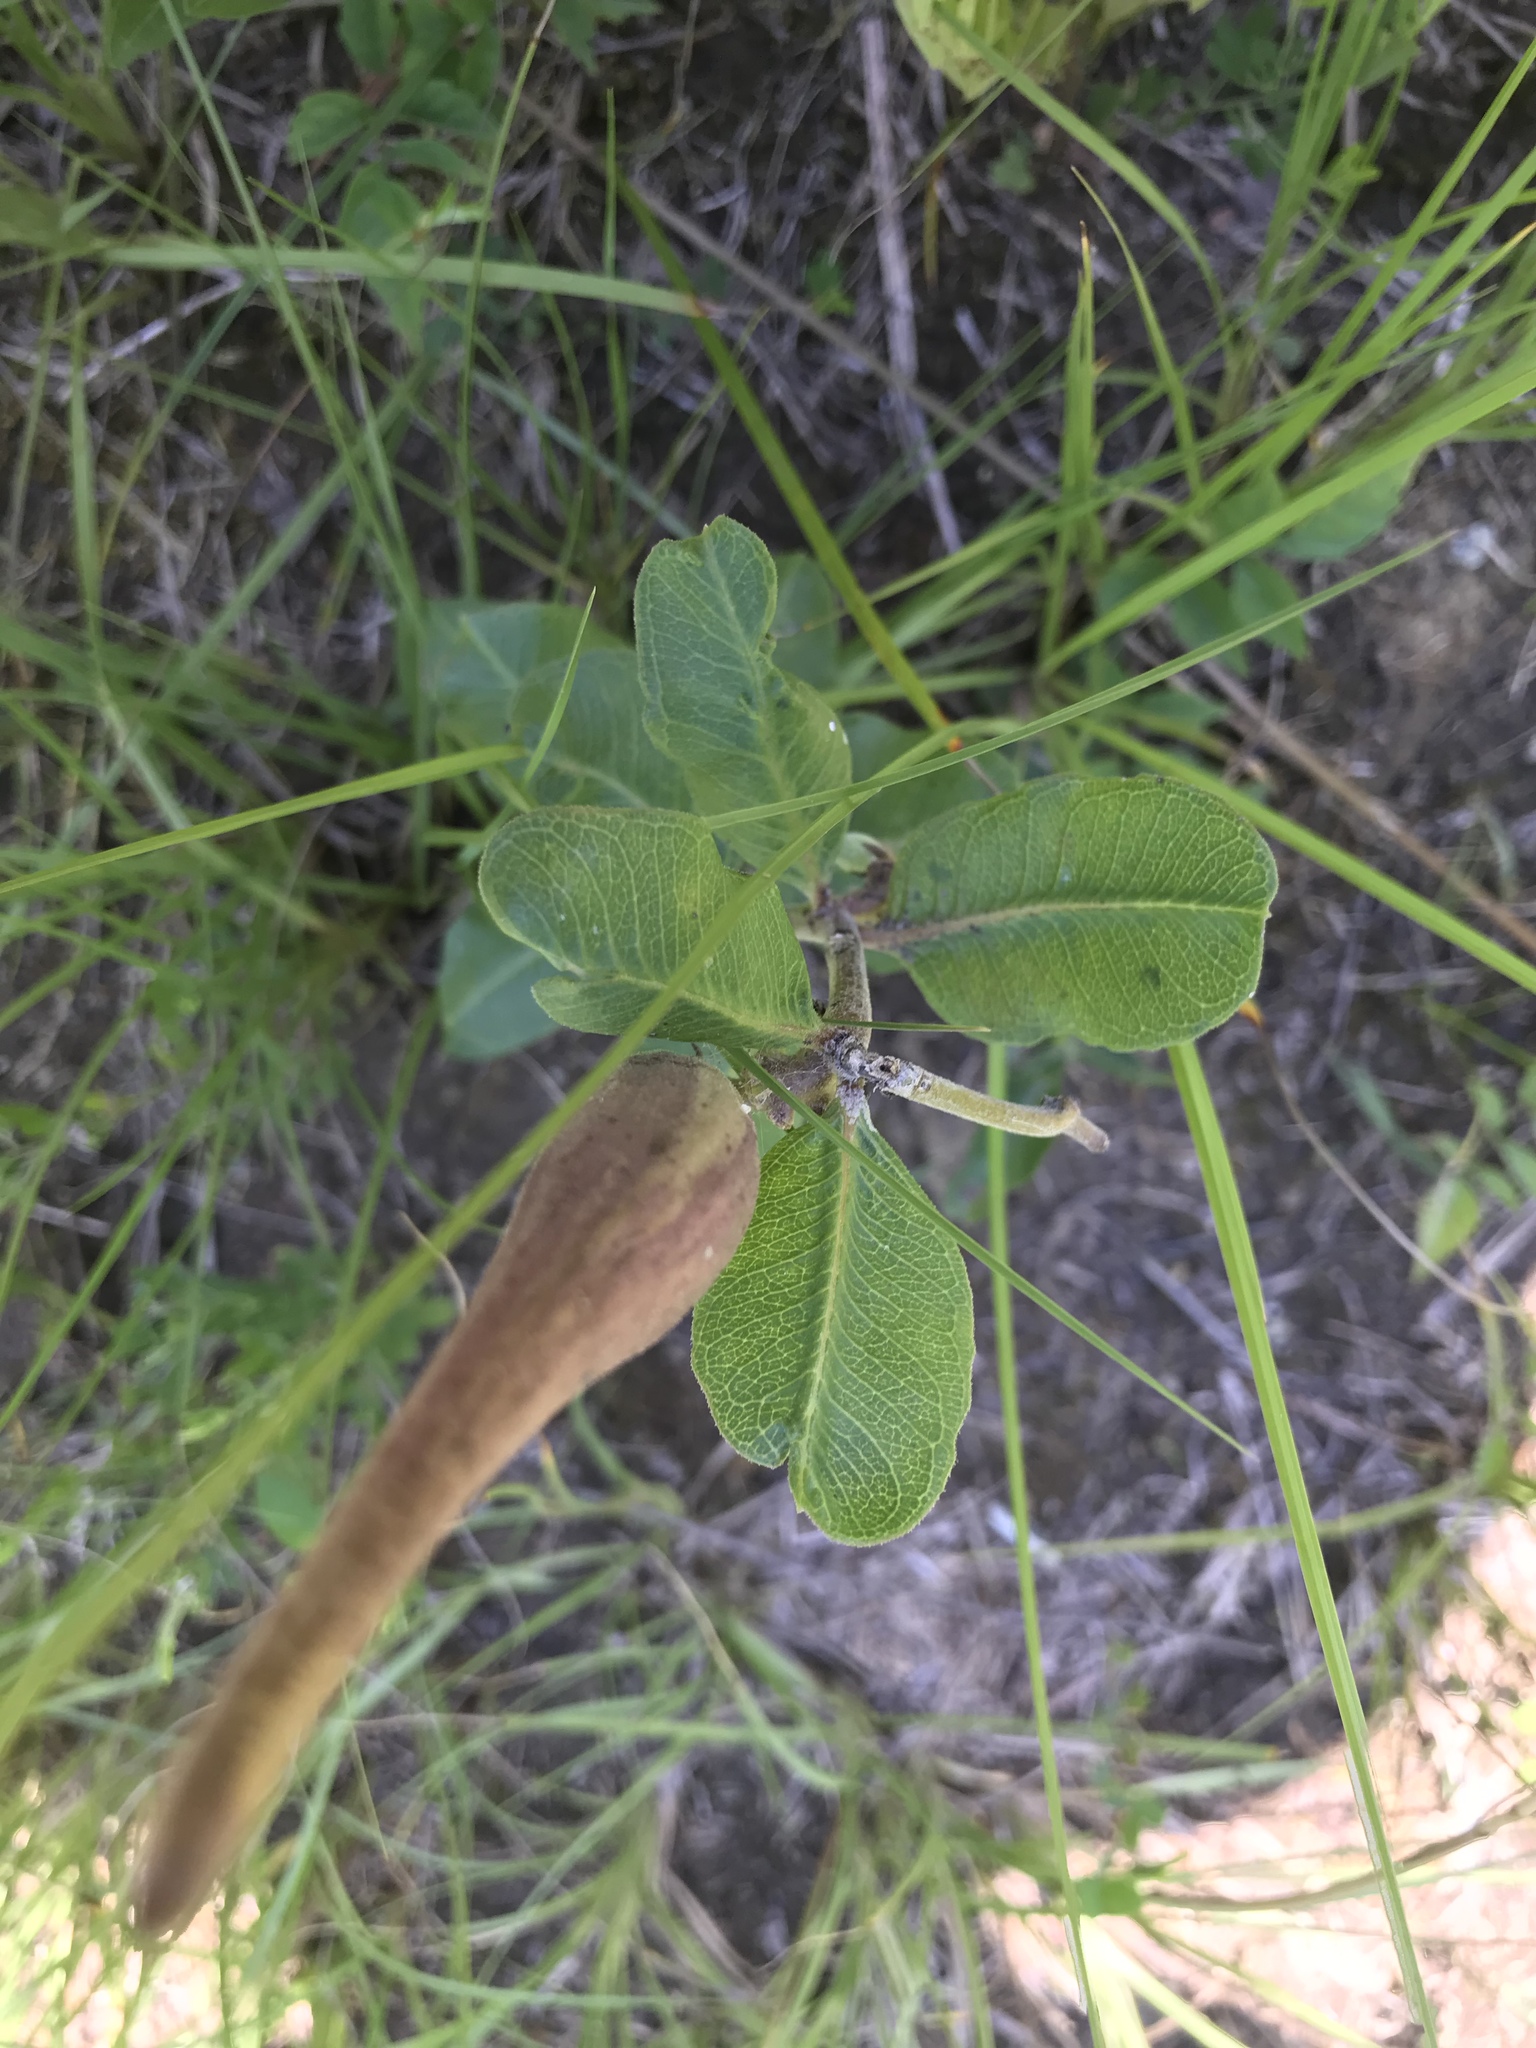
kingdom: Plantae
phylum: Tracheophyta
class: Magnoliopsida
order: Gentianales
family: Apocynaceae
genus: Asclepias
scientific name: Asclepias viridiflora
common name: Green comet milkweed
